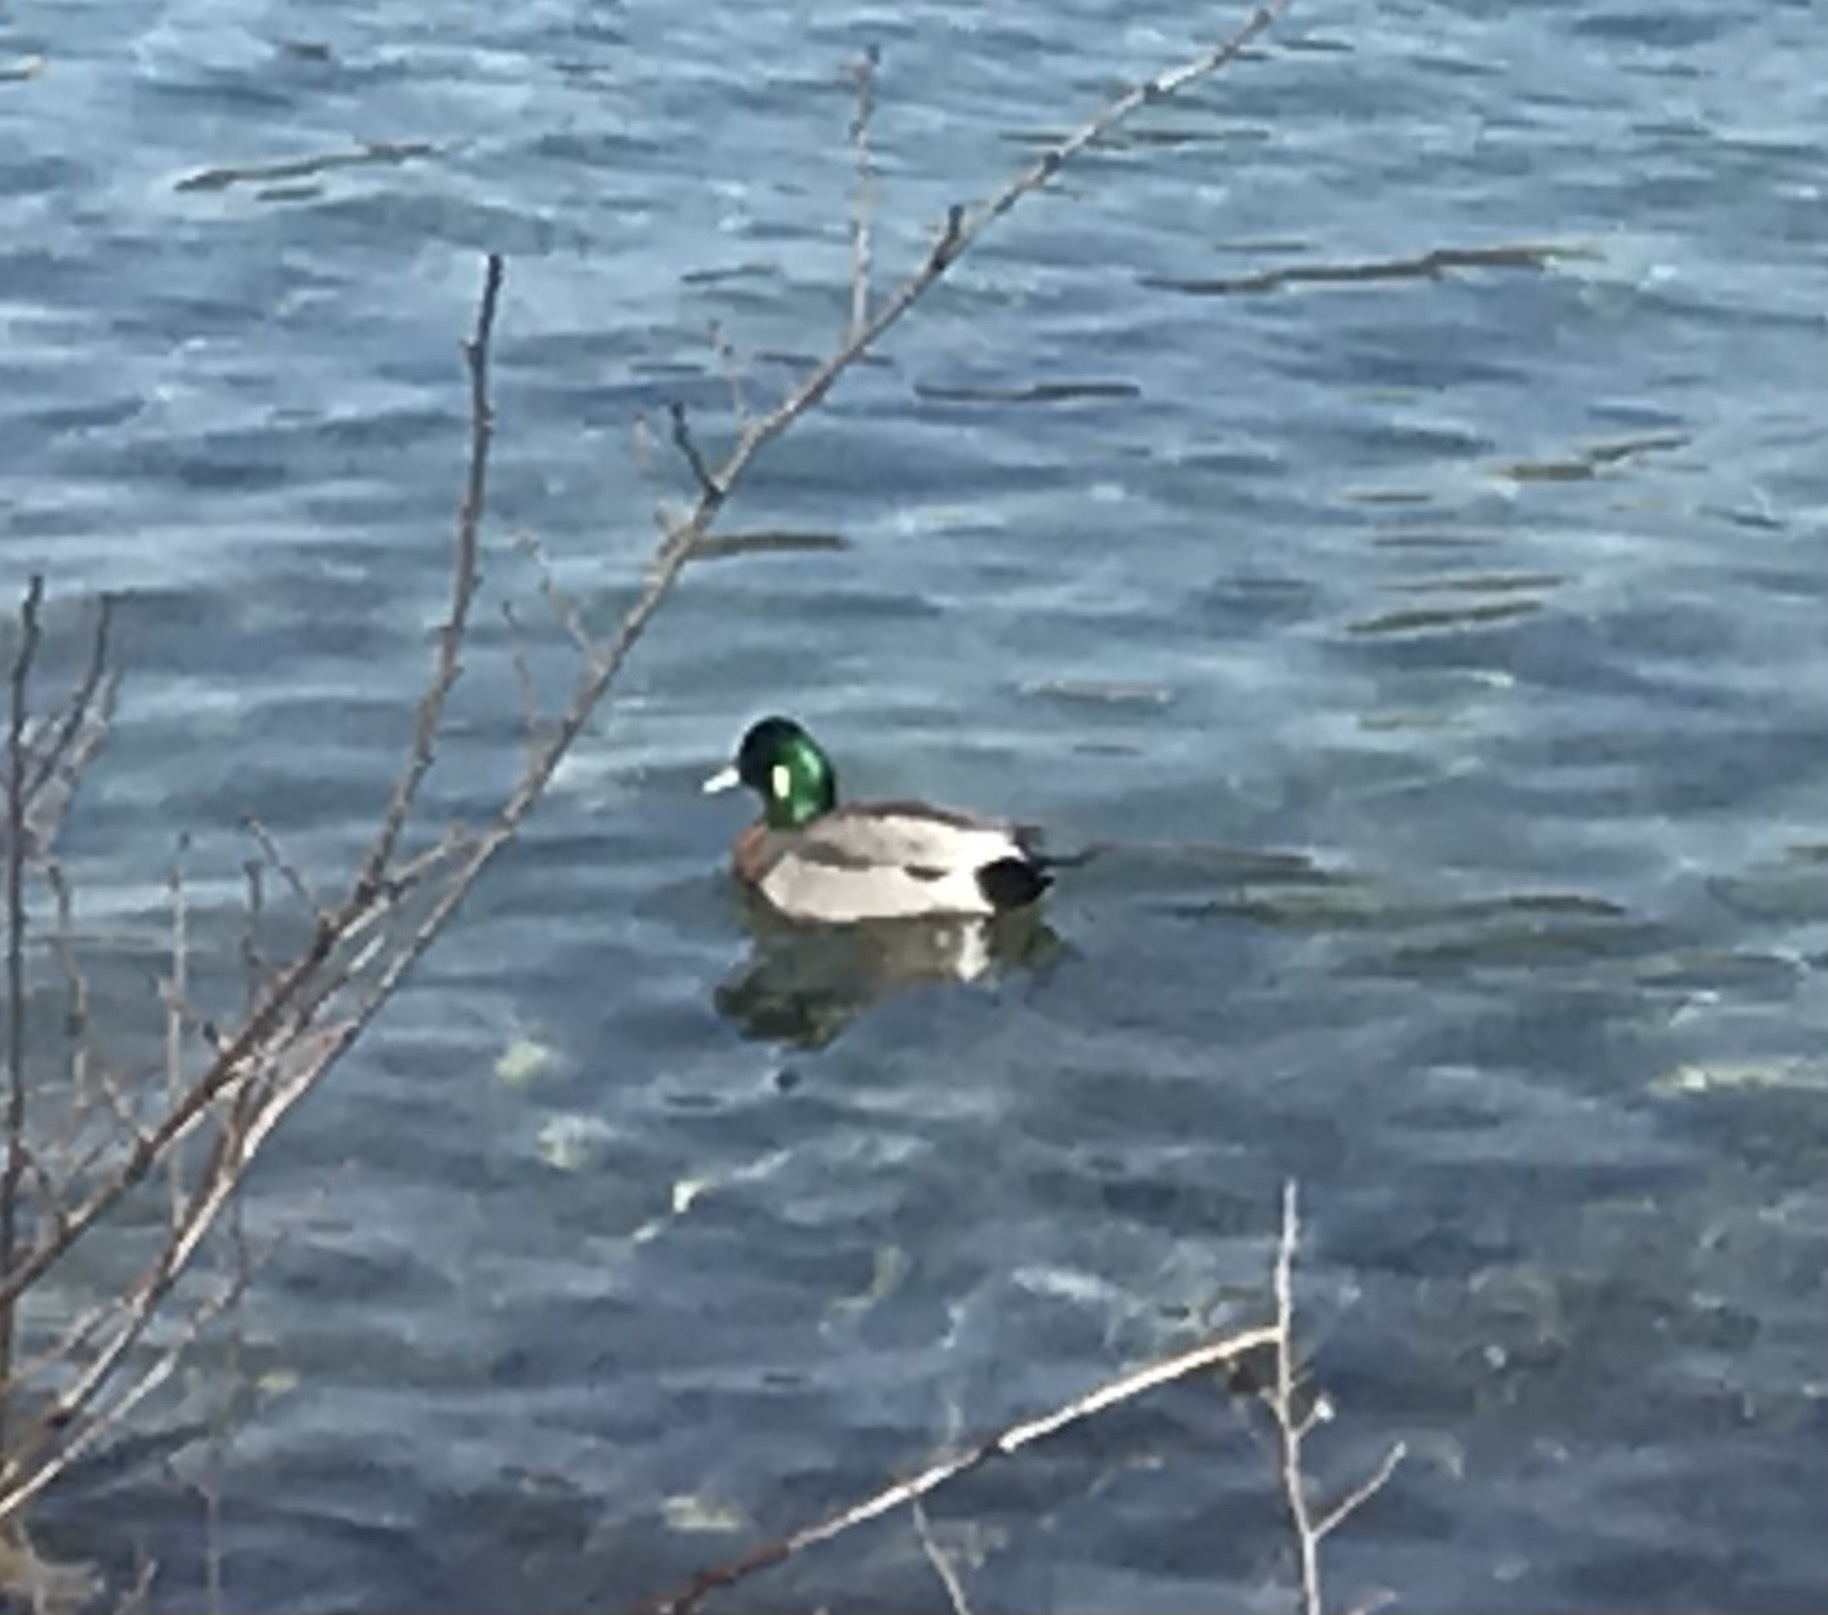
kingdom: Animalia
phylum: Chordata
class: Aves
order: Anseriformes
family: Anatidae
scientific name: Anatidae
